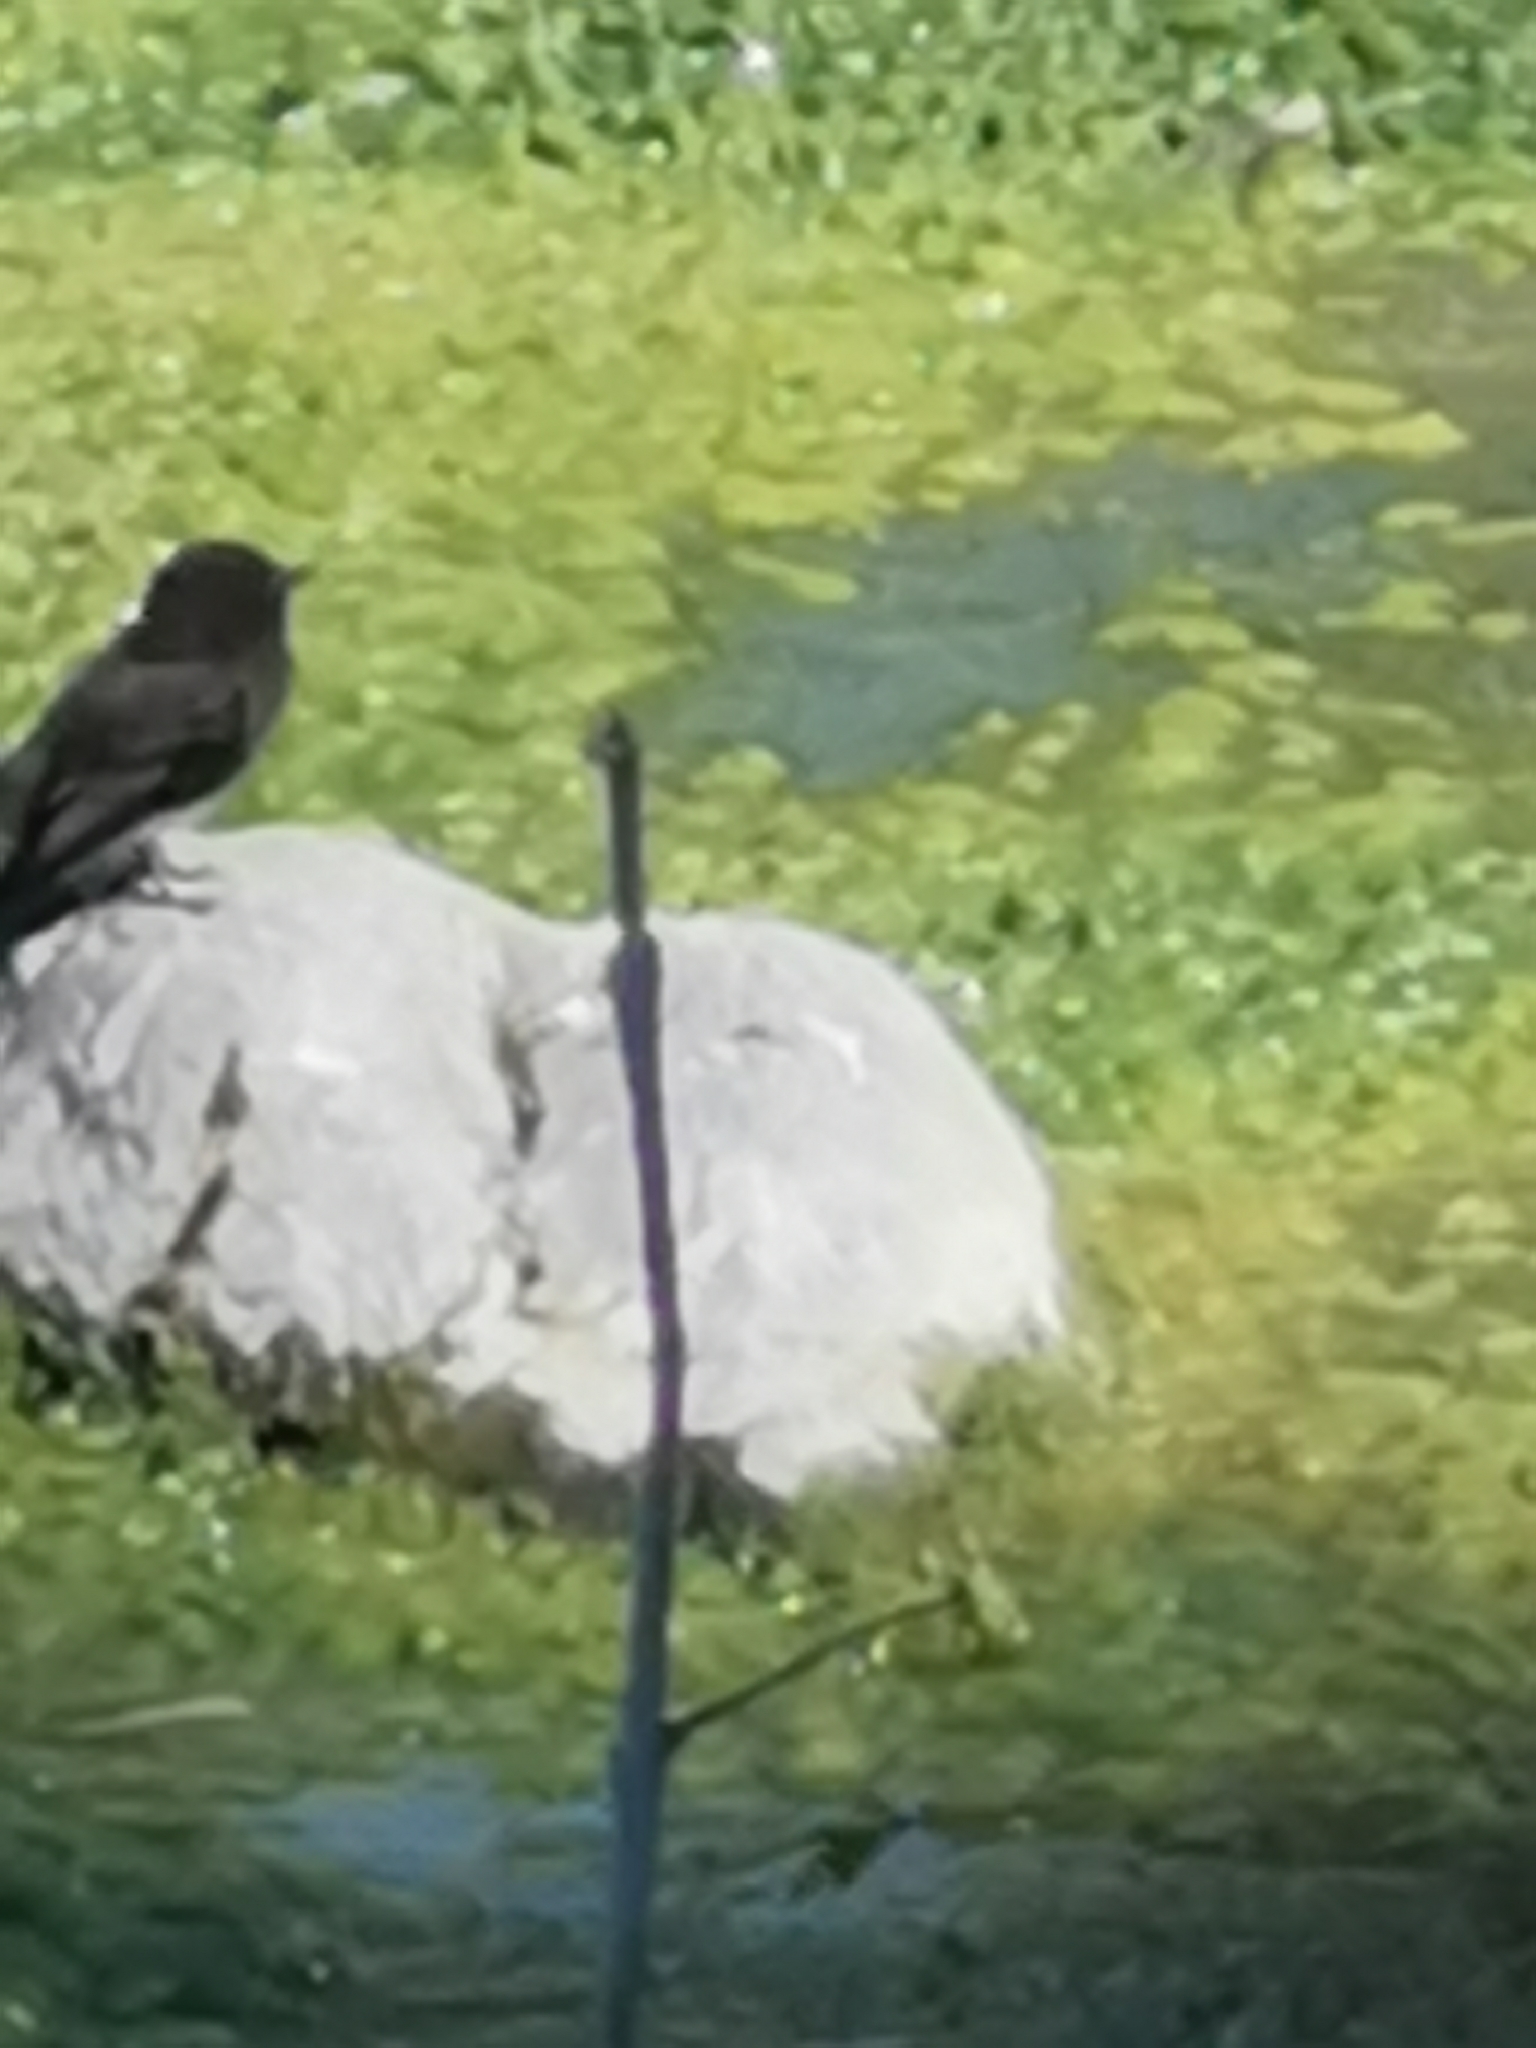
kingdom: Animalia
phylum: Chordata
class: Aves
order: Passeriformes
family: Tyrannidae
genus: Sayornis
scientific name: Sayornis nigricans
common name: Black phoebe
